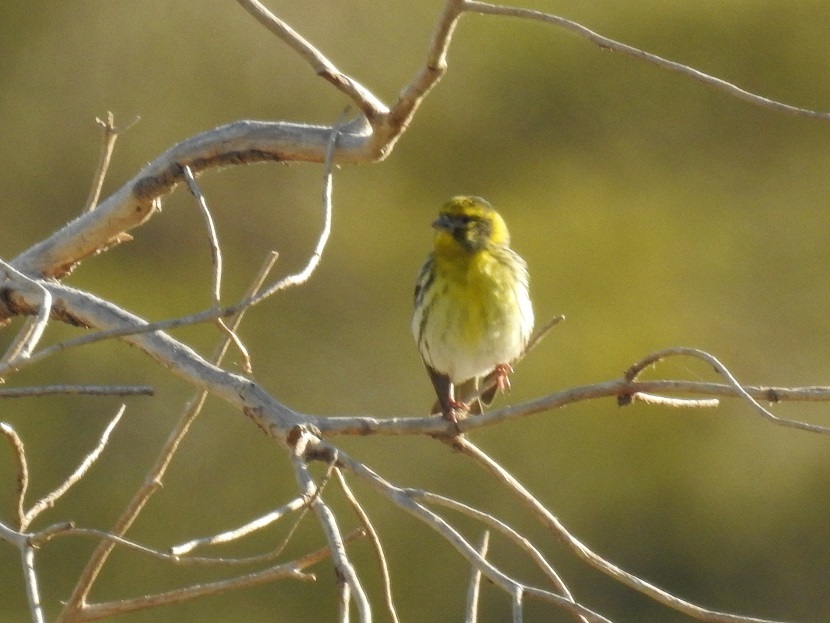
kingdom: Animalia
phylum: Chordata
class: Aves
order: Passeriformes
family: Fringillidae
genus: Serinus
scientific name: Serinus serinus
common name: European serin
